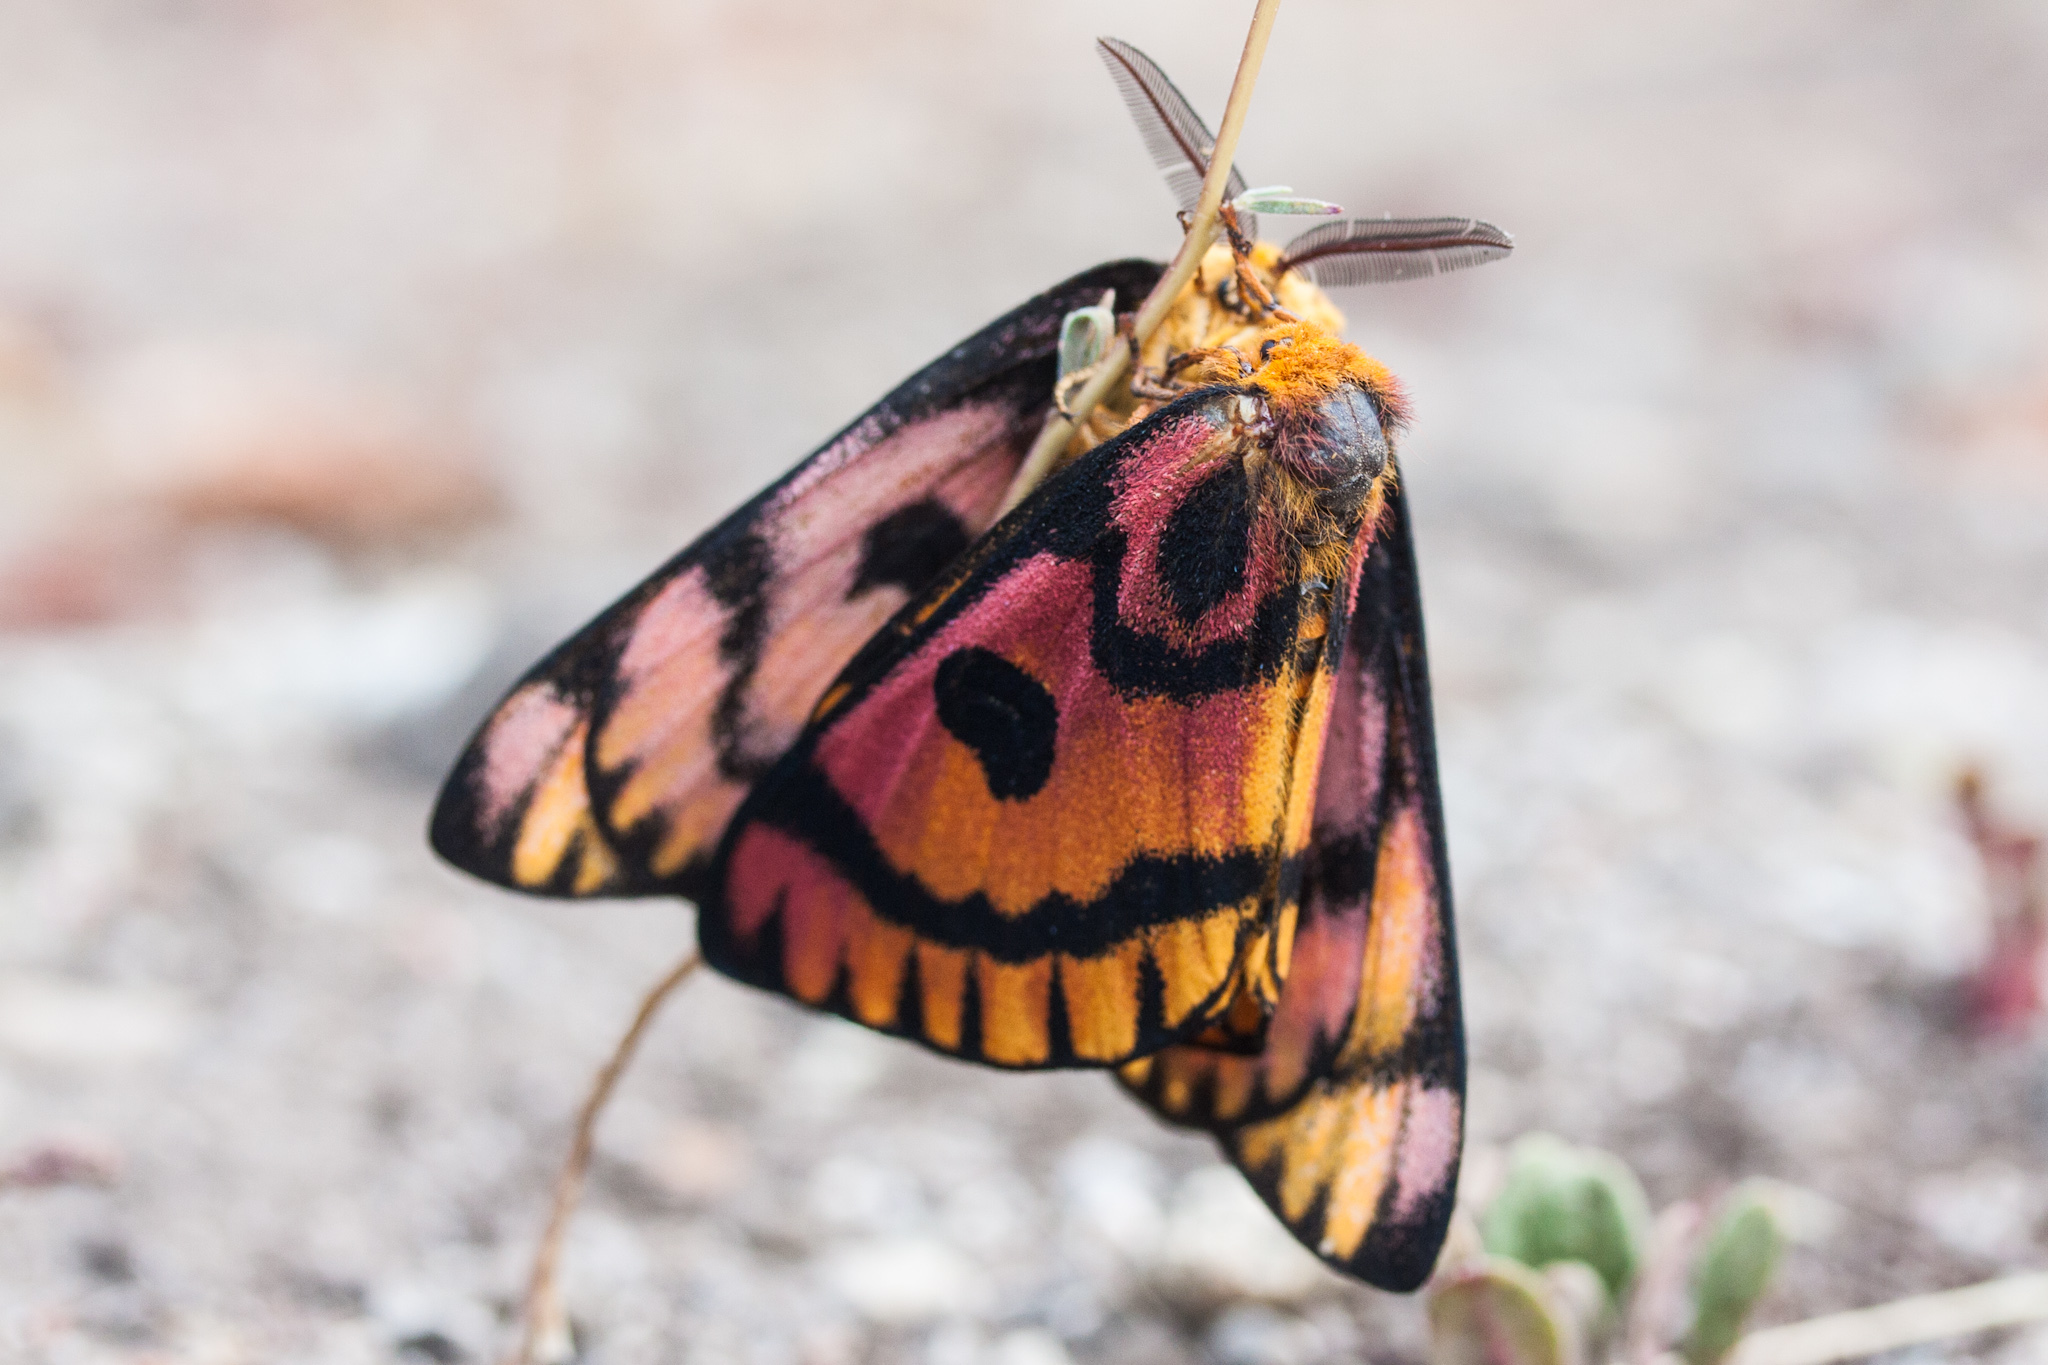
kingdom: Animalia
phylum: Arthropoda
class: Insecta
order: Lepidoptera
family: Saturniidae
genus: Hemileuca
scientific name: Hemileuca eglanterina
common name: Western sheepmoth
